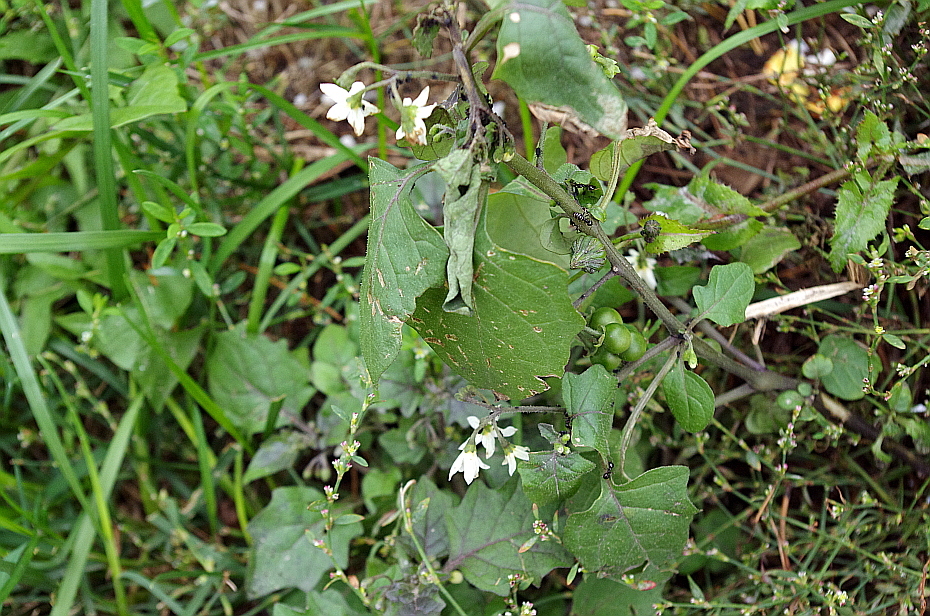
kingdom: Plantae
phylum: Tracheophyta
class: Magnoliopsida
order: Solanales
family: Solanaceae
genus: Solanum
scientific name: Solanum nigrum
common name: Black nightshade
